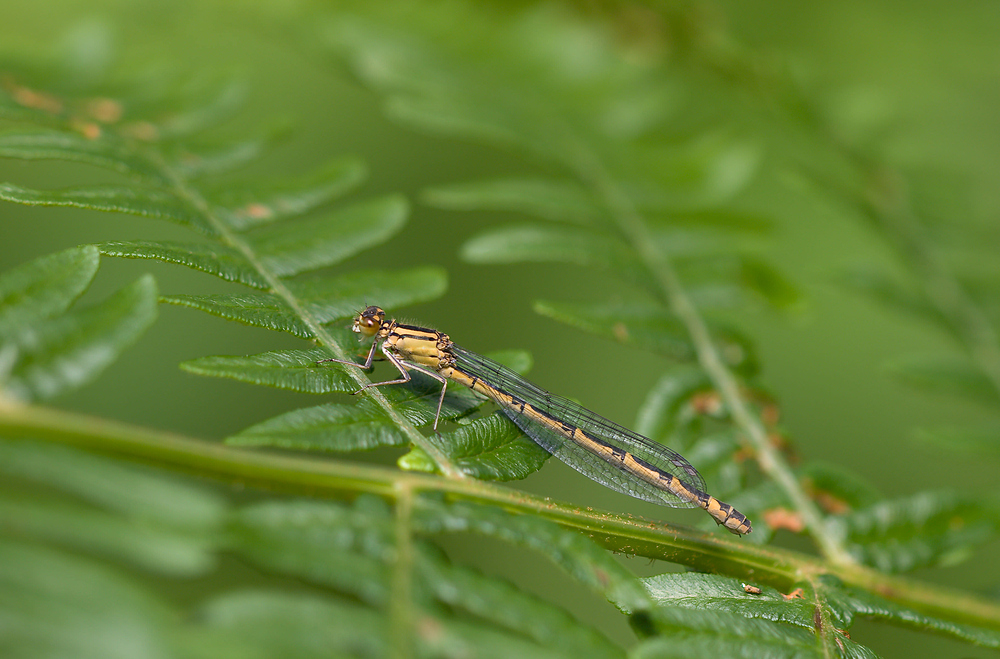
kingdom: Animalia
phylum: Arthropoda
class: Insecta
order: Odonata
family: Coenagrionidae
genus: Enallagma
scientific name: Enallagma cyathigerum
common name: Common blue damselfly
